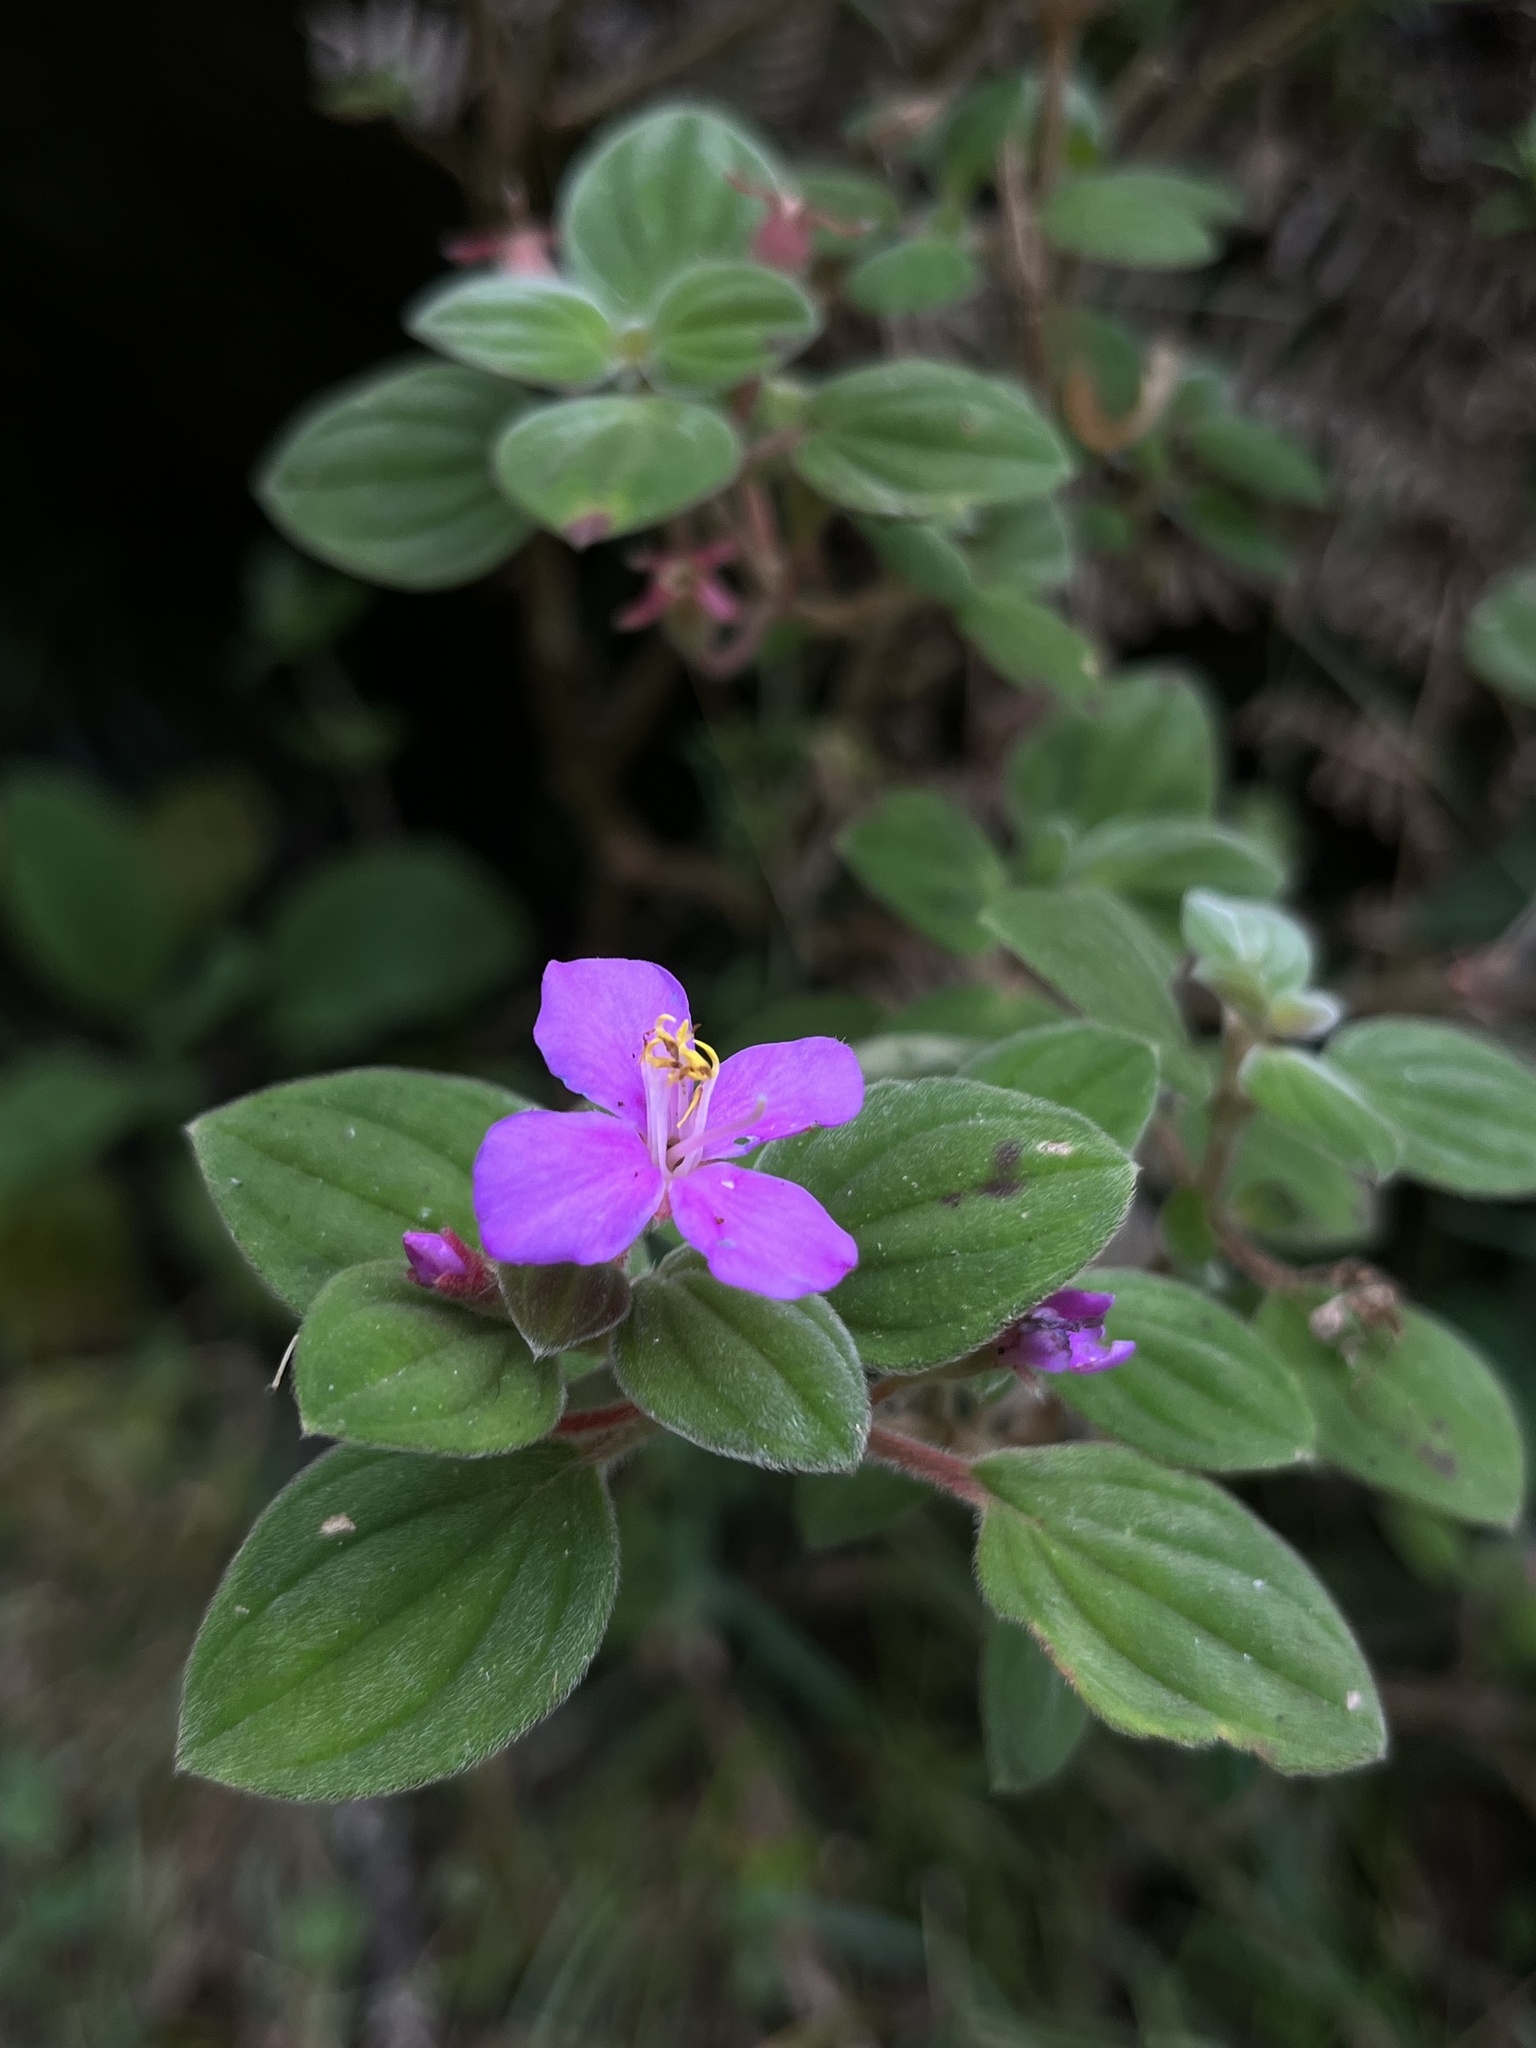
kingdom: Plantae
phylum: Tracheophyta
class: Magnoliopsida
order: Myrtales
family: Melastomataceae
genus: Monochaetum
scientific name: Monochaetum bonplandii
